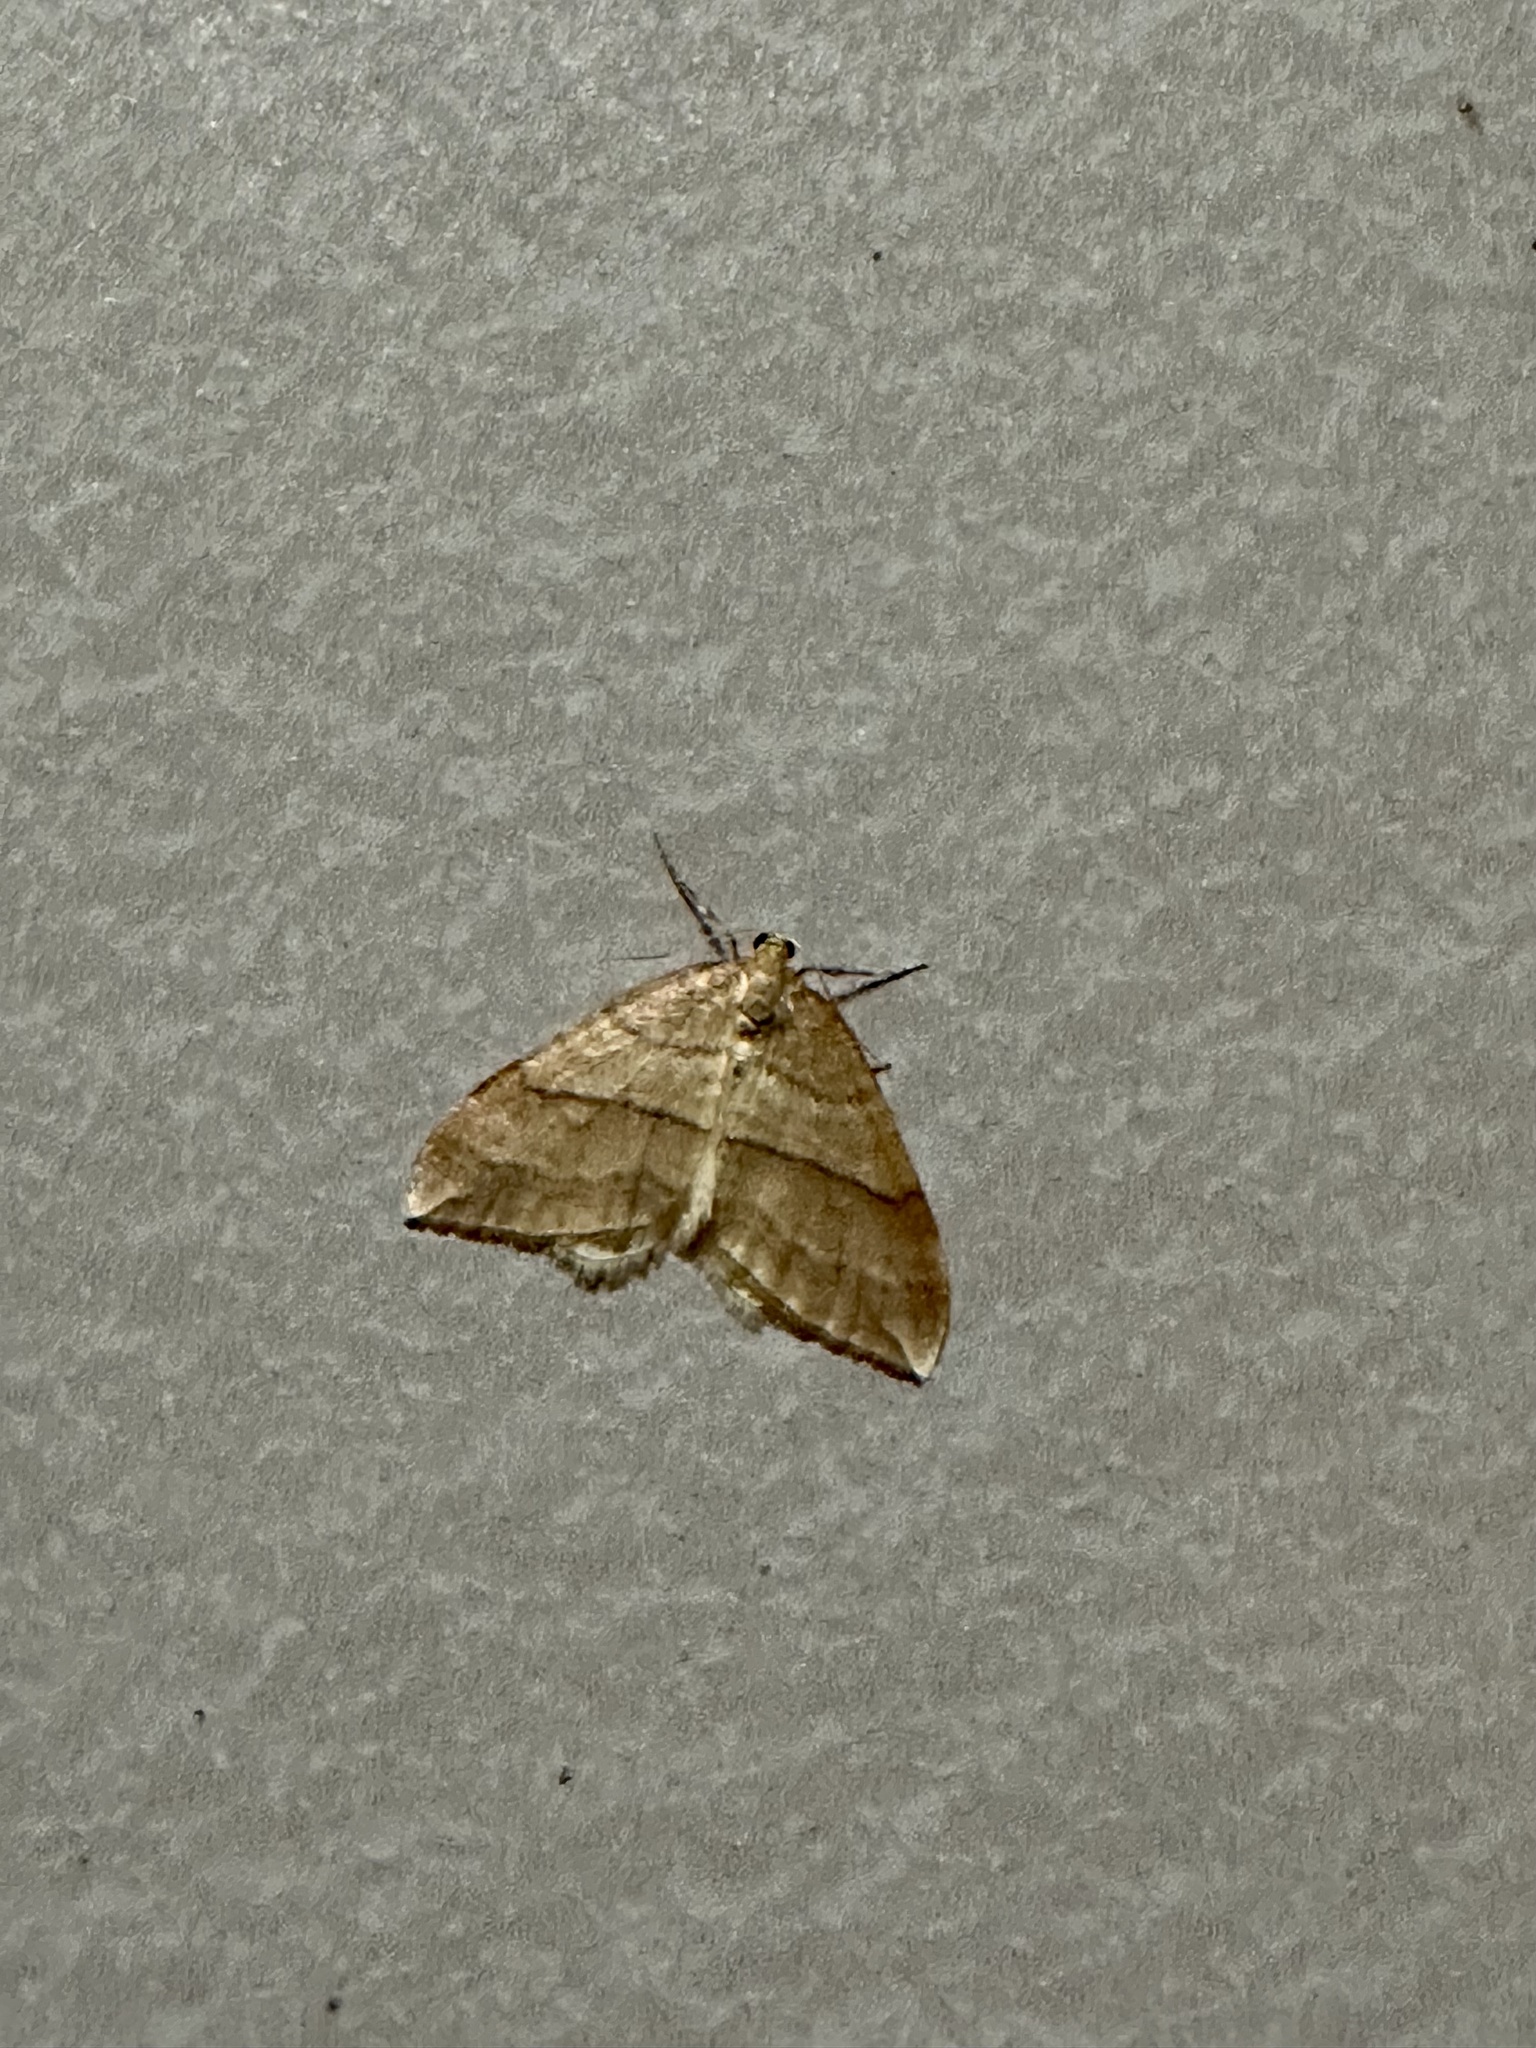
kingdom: Animalia
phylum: Arthropoda
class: Insecta
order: Lepidoptera
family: Geometridae
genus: Nothoporinia
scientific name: Nothoporinia mediolineata
